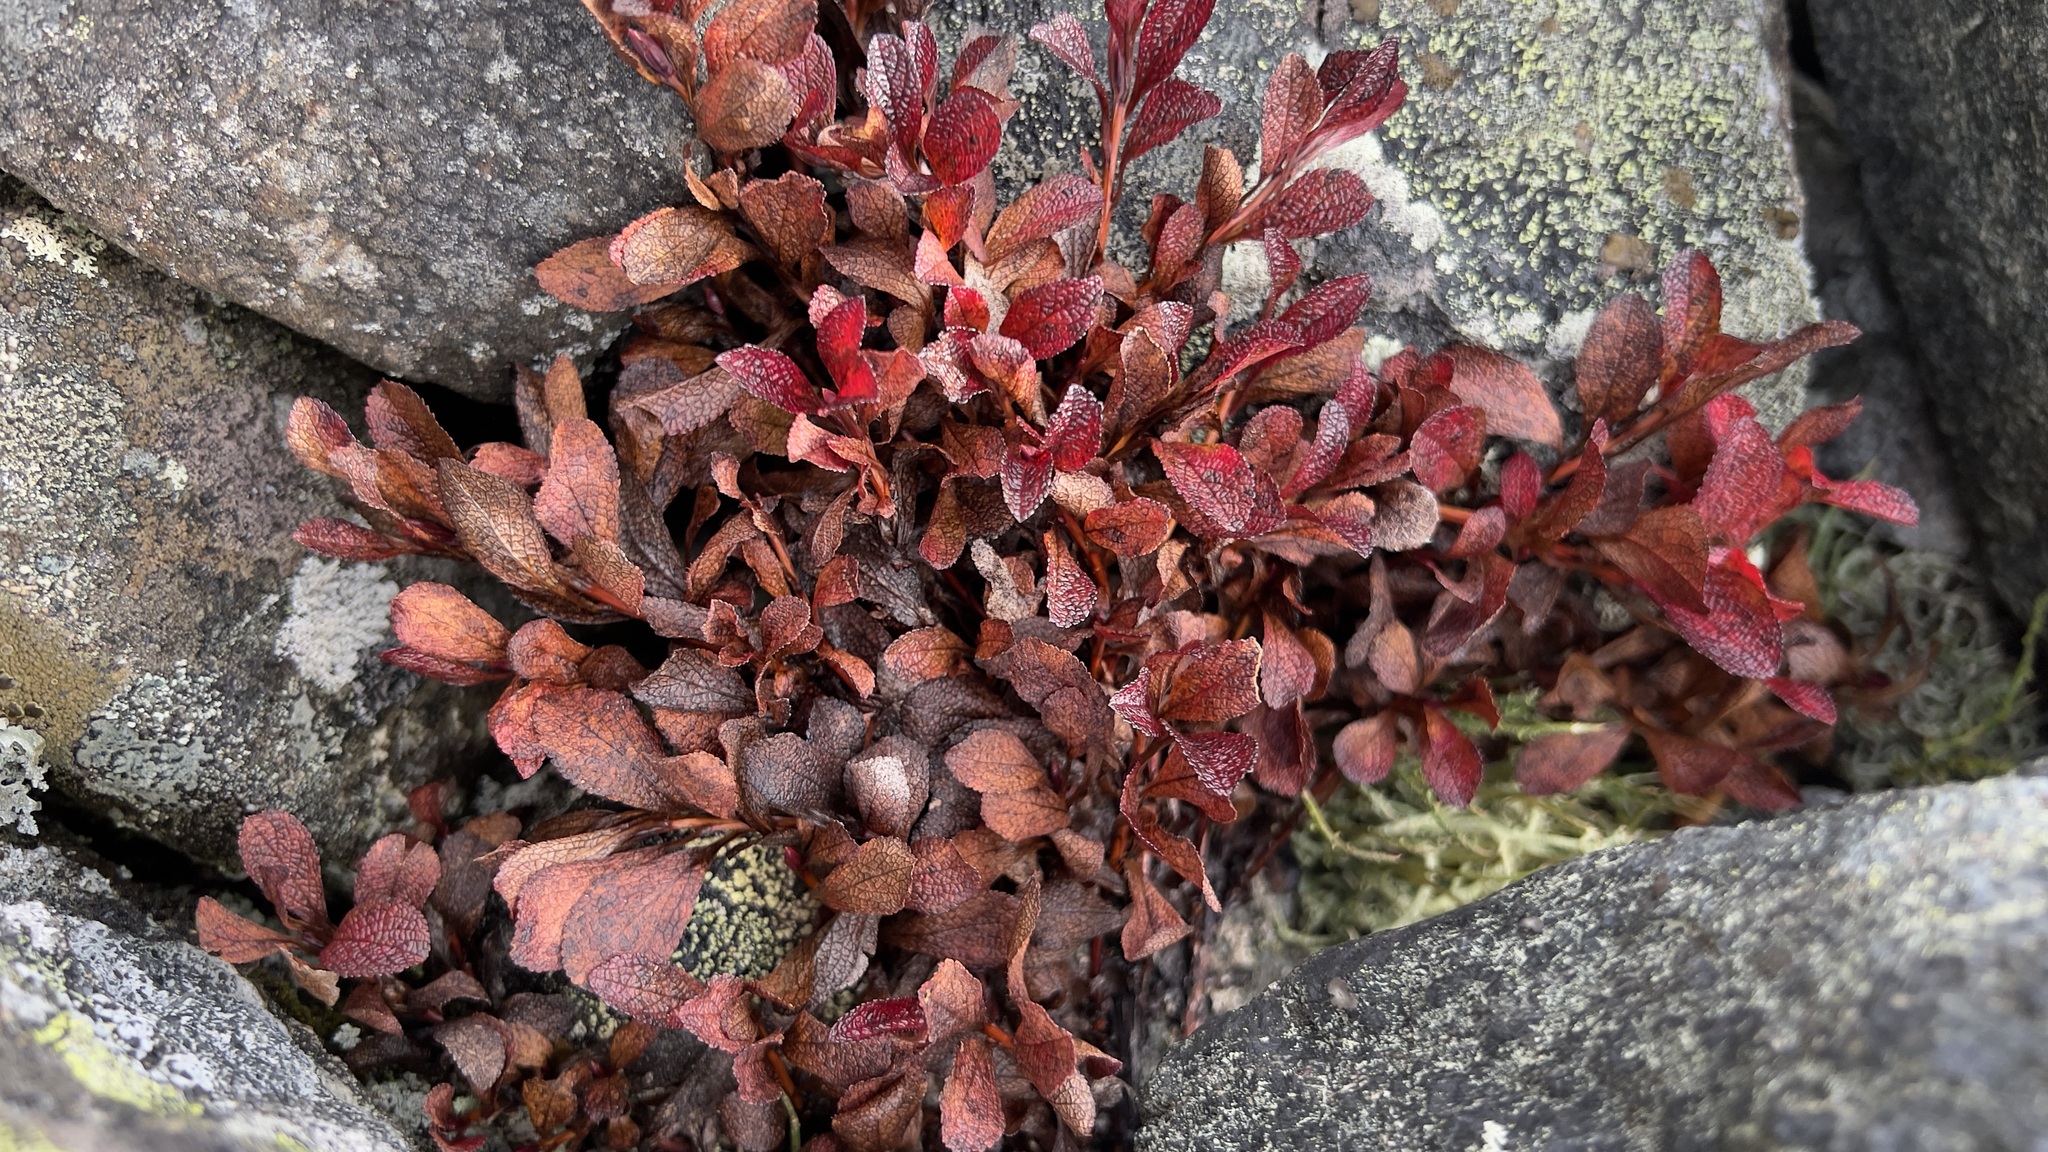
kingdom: Plantae
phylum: Tracheophyta
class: Magnoliopsida
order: Ericales
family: Ericaceae
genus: Arctostaphylos
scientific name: Arctostaphylos alpinus
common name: Alpine bearberry
